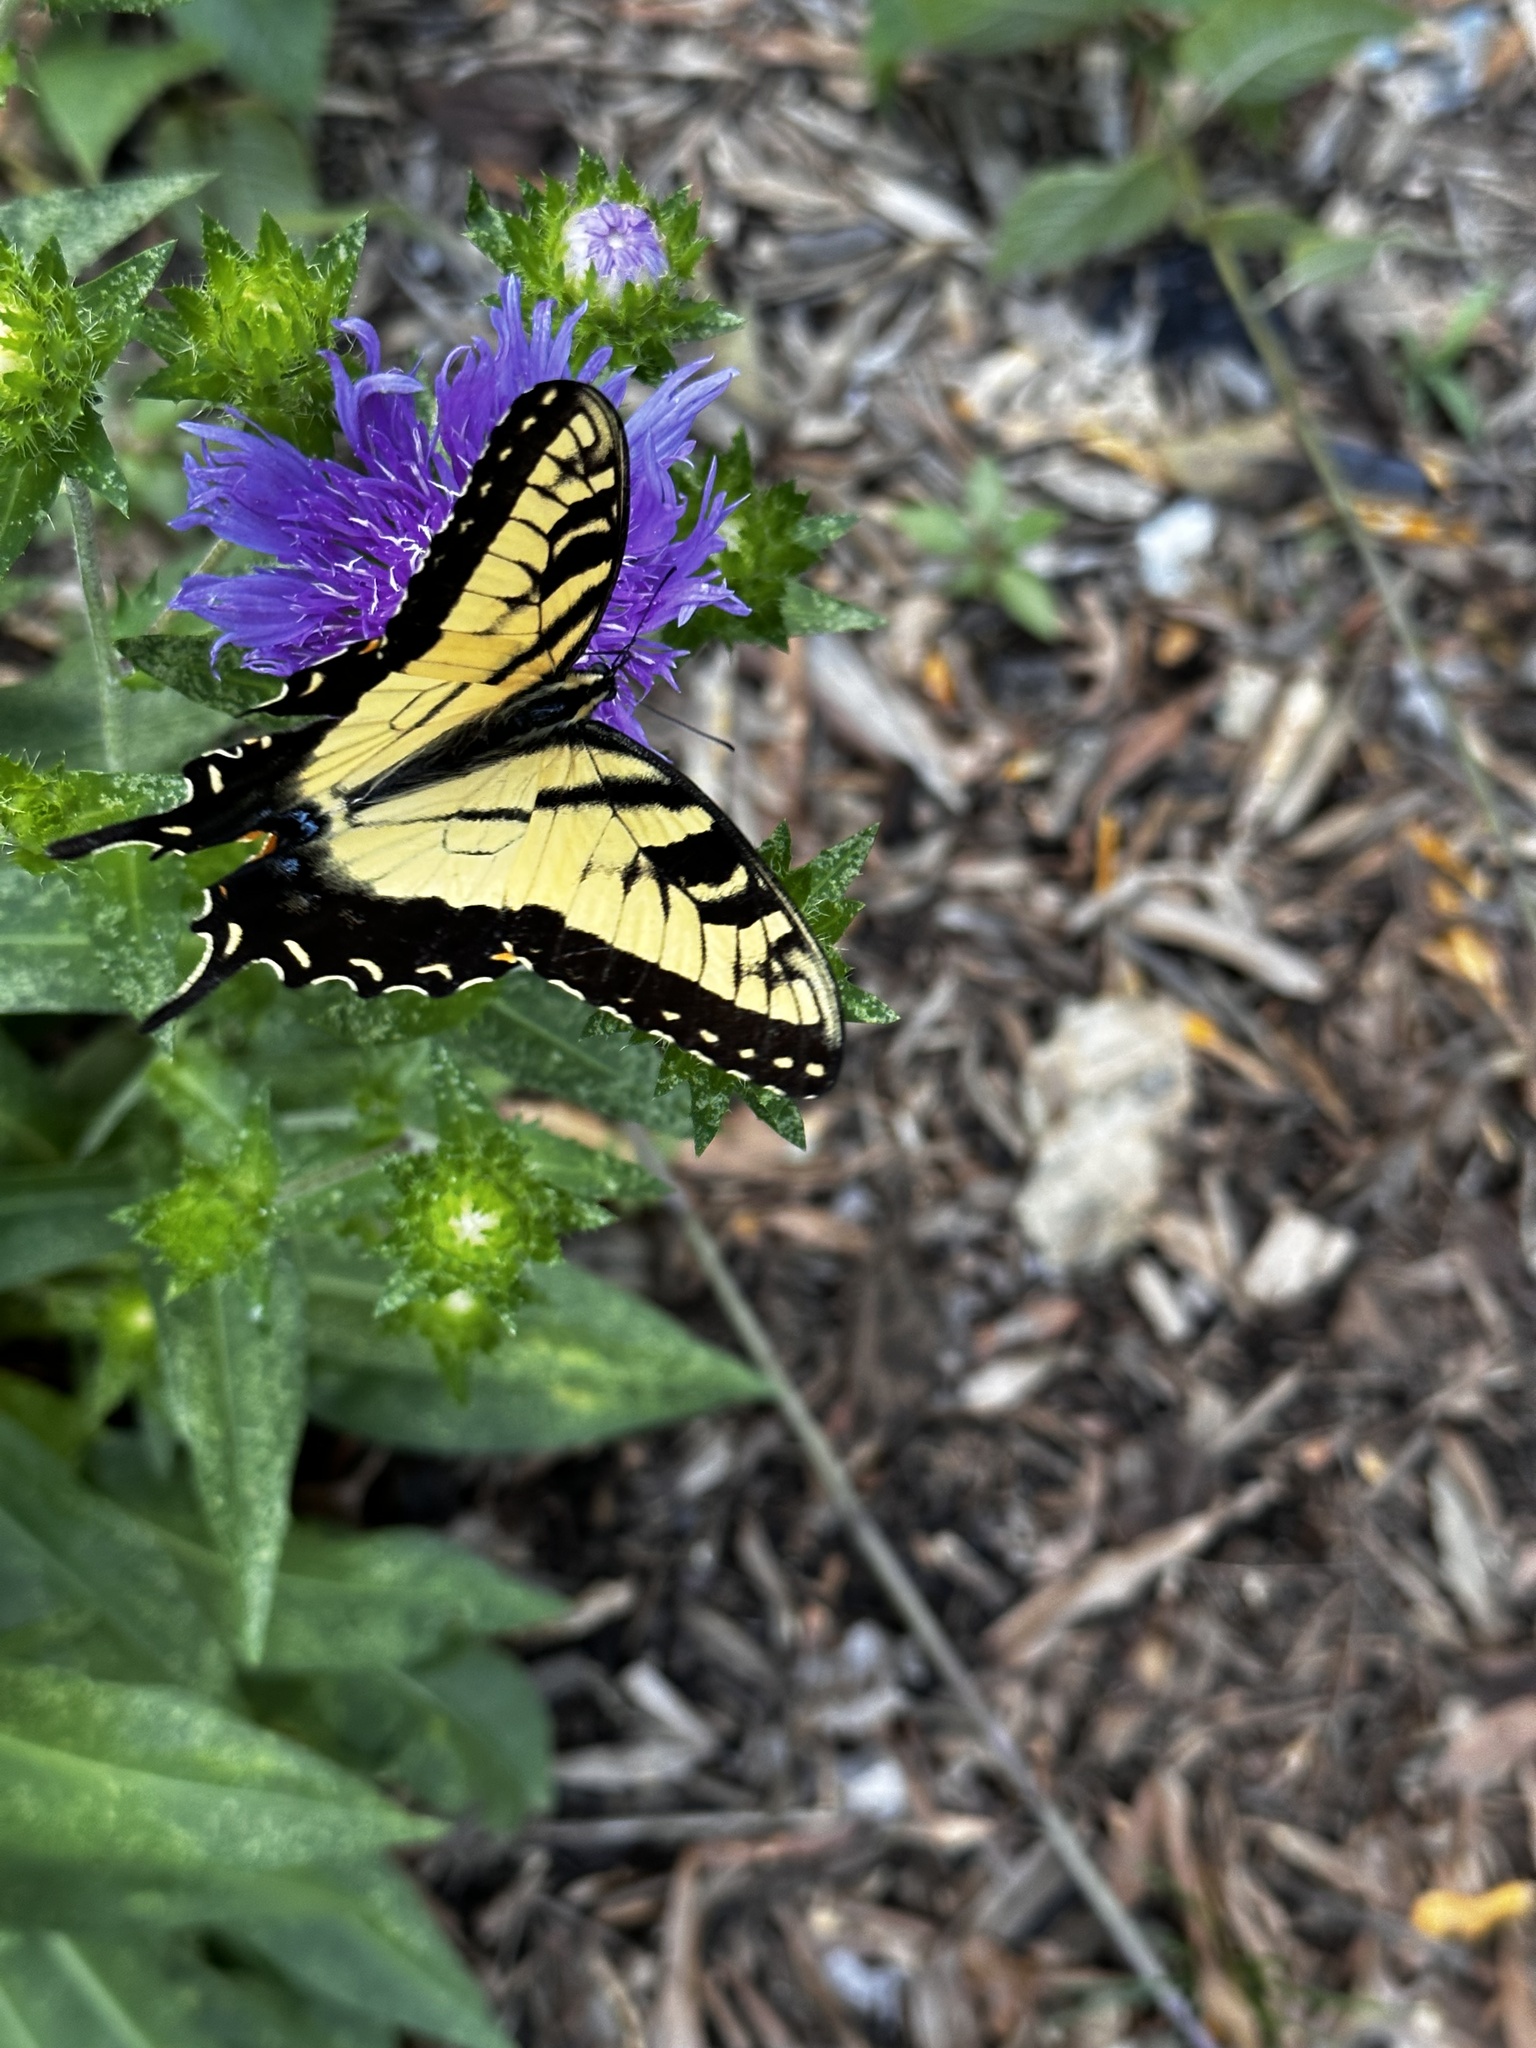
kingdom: Animalia
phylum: Arthropoda
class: Insecta
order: Lepidoptera
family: Papilionidae
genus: Papilio
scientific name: Papilio glaucus
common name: Tiger swallowtail
